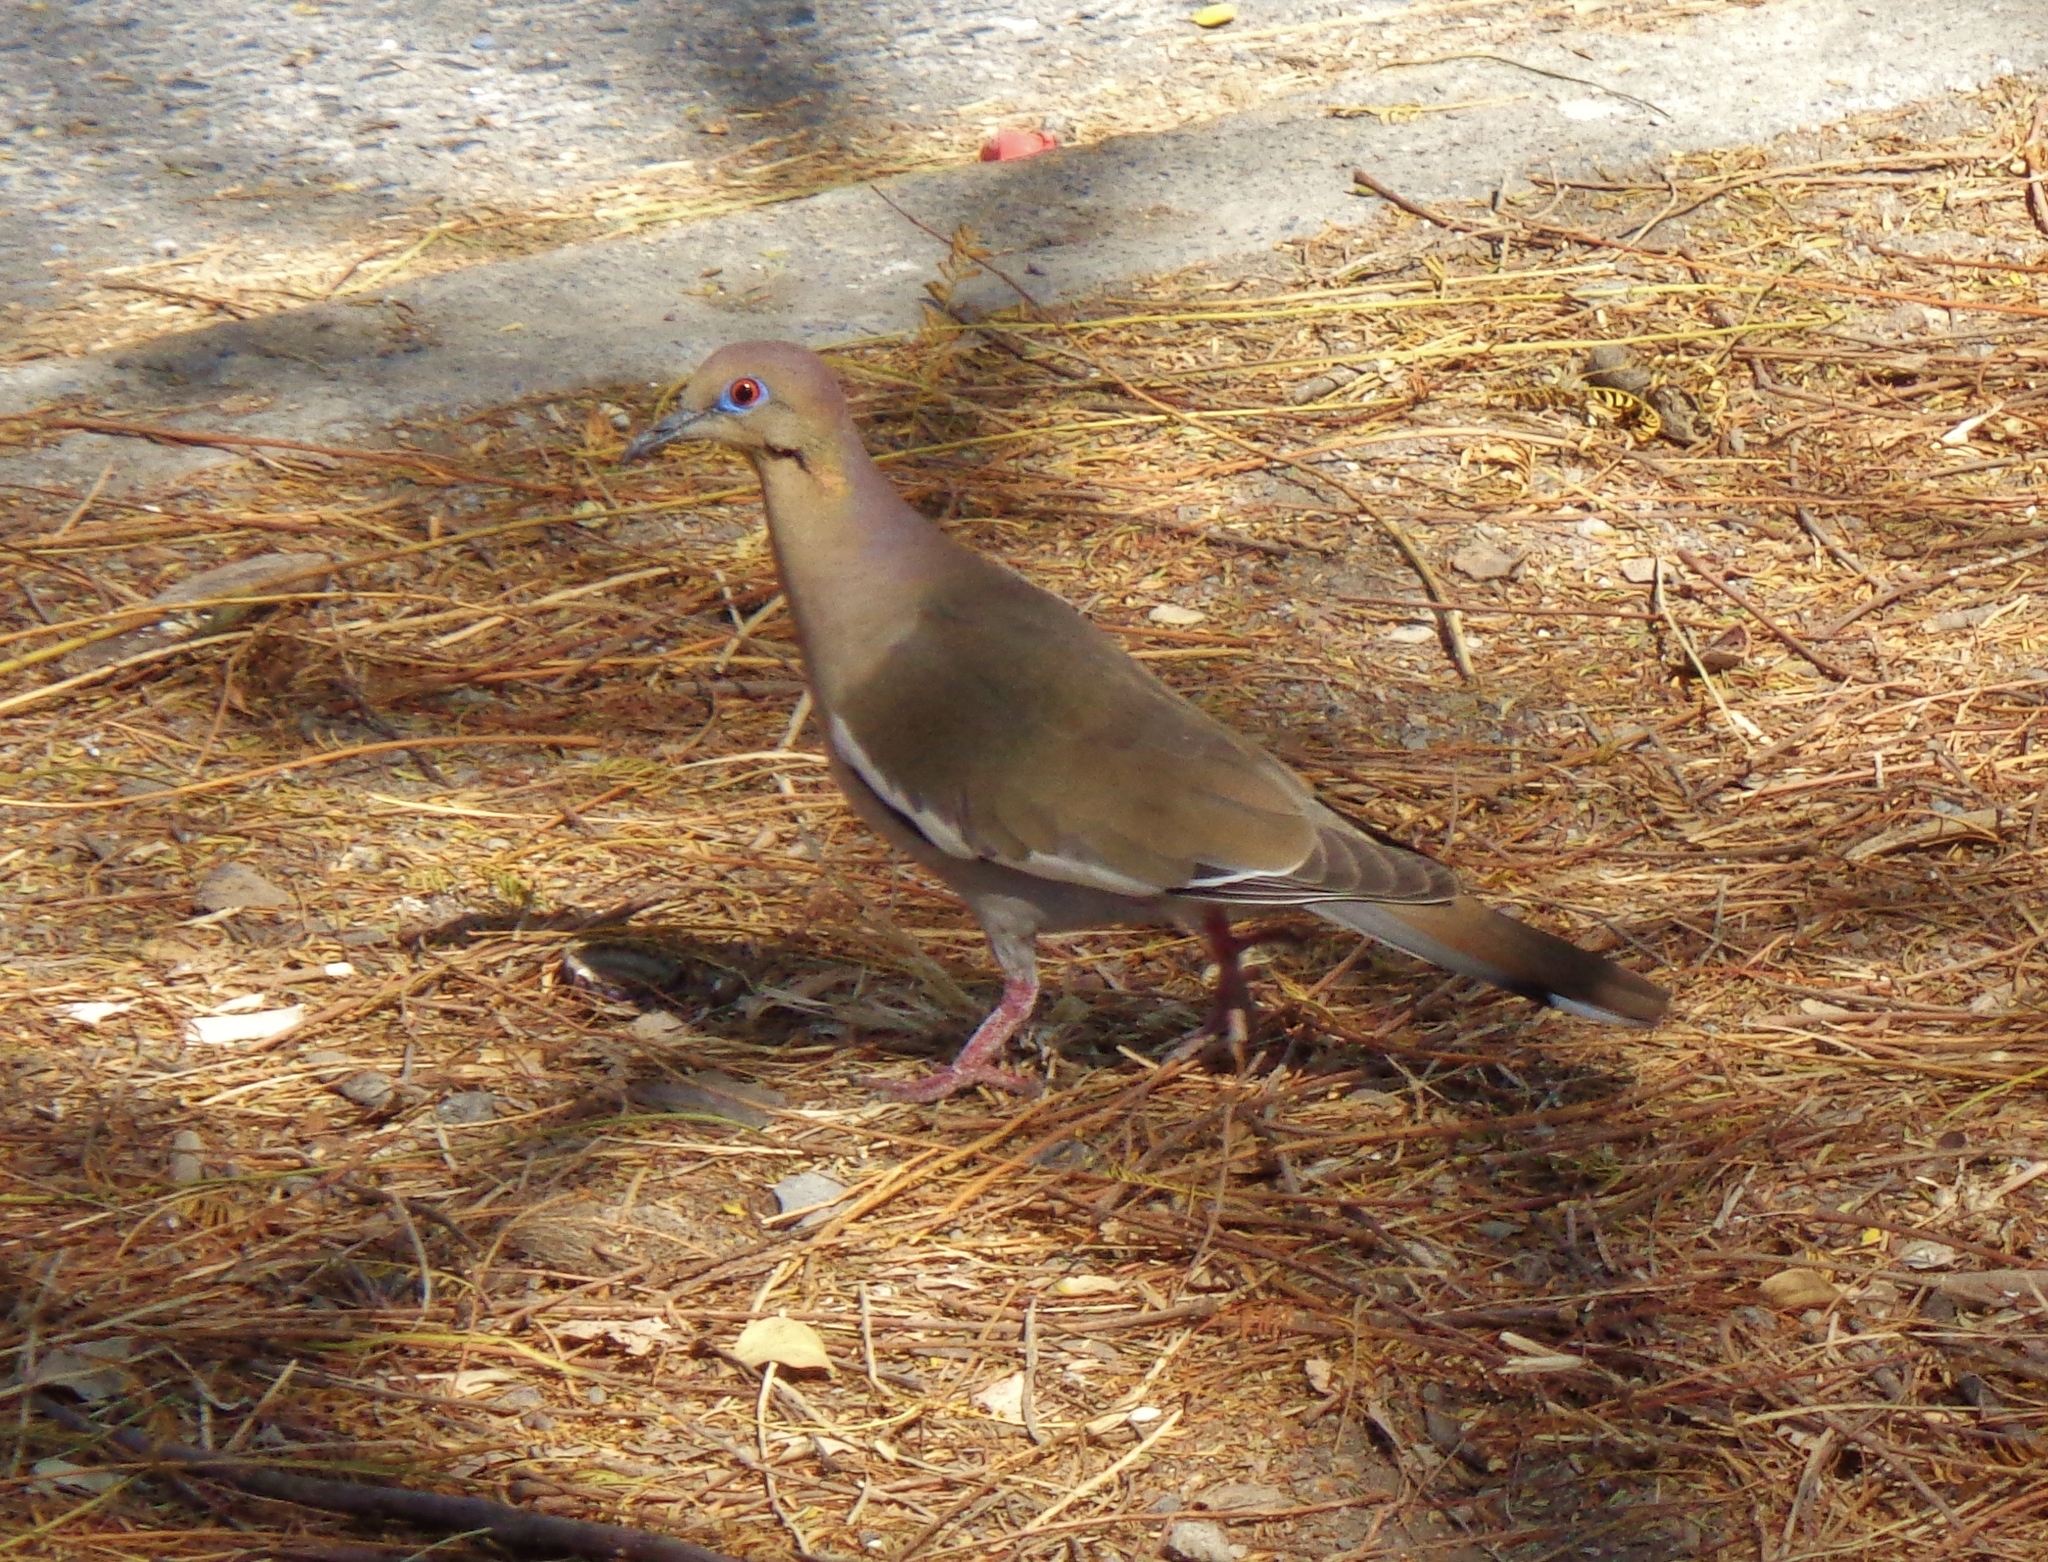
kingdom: Animalia
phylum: Chordata
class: Aves
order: Columbiformes
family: Columbidae
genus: Zenaida
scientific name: Zenaida asiatica
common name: White-winged dove
